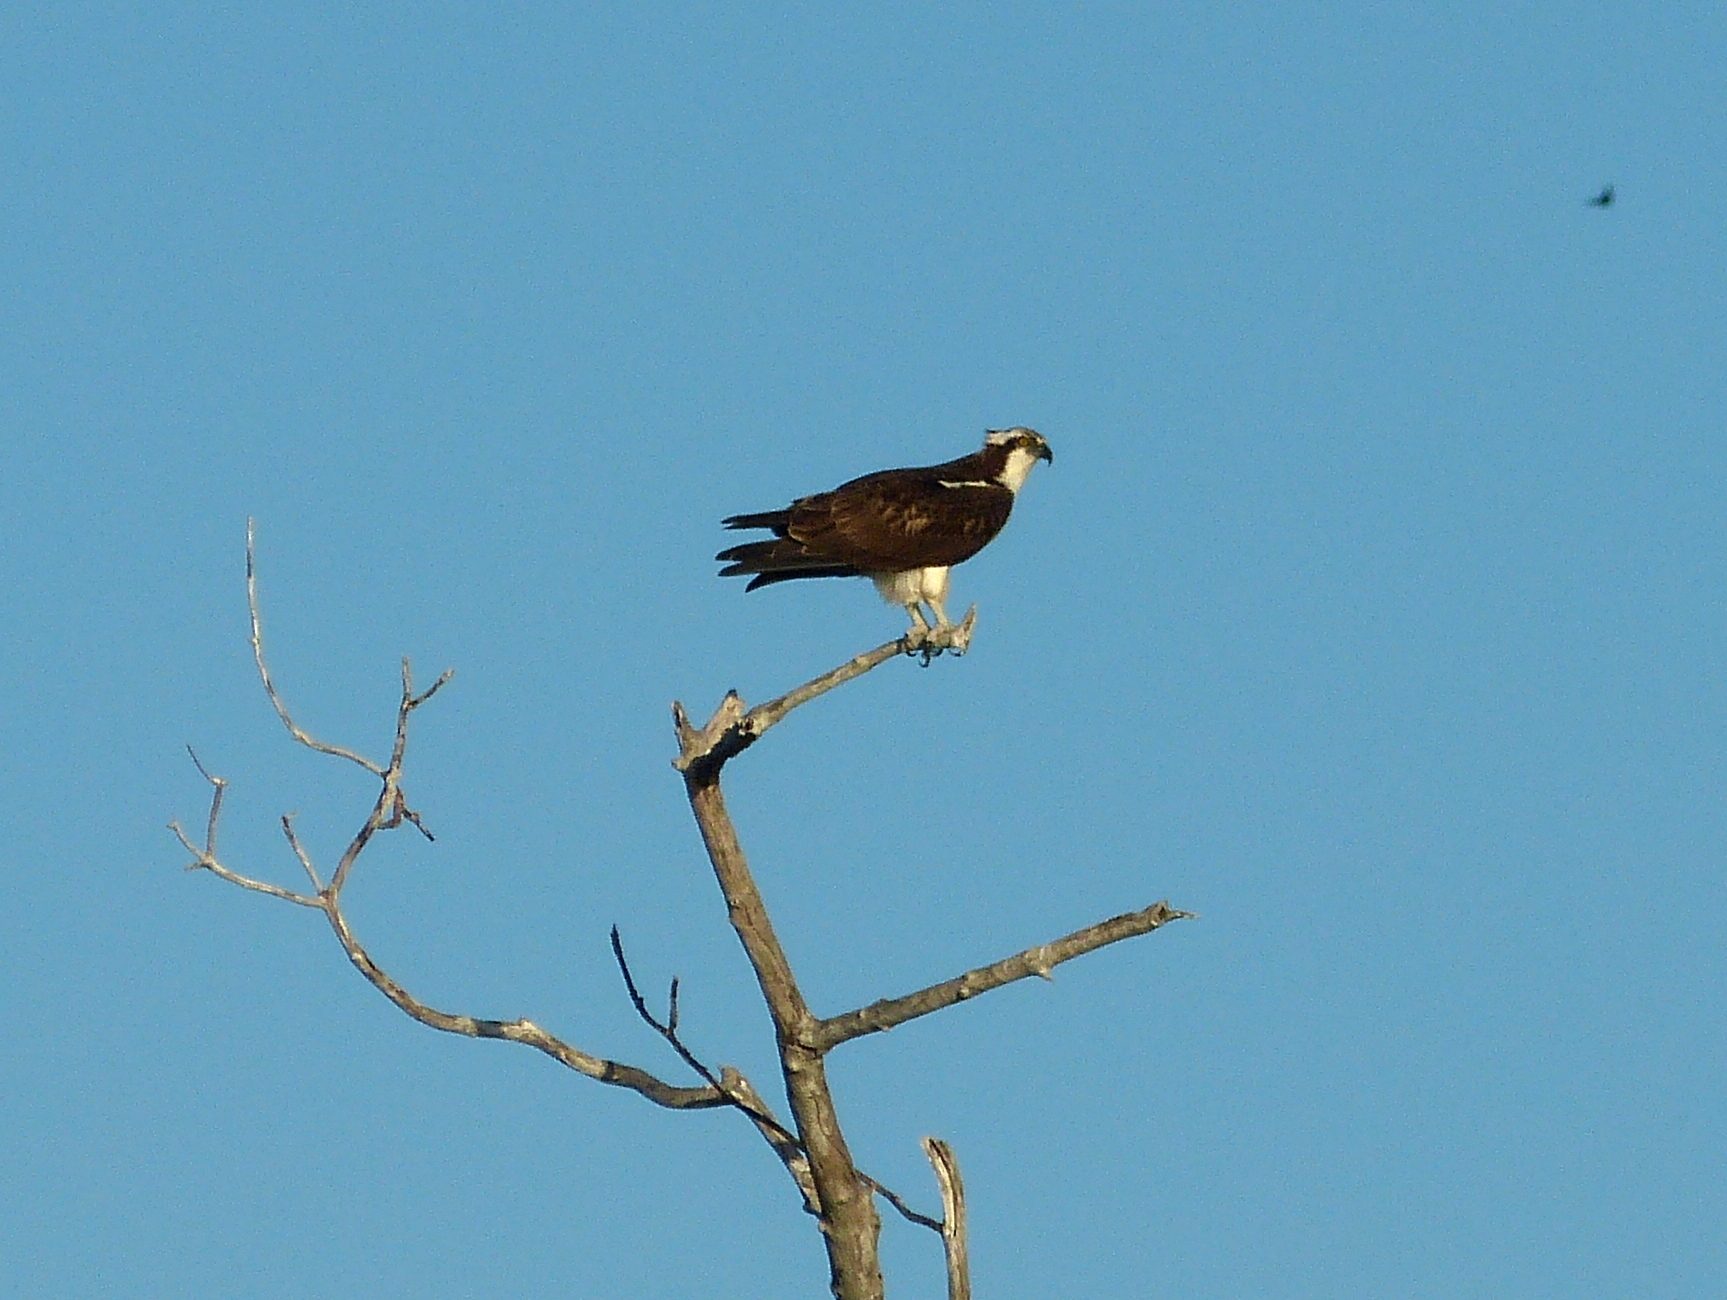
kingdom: Animalia
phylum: Chordata
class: Aves
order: Accipitriformes
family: Pandionidae
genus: Pandion
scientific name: Pandion haliaetus
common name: Osprey
